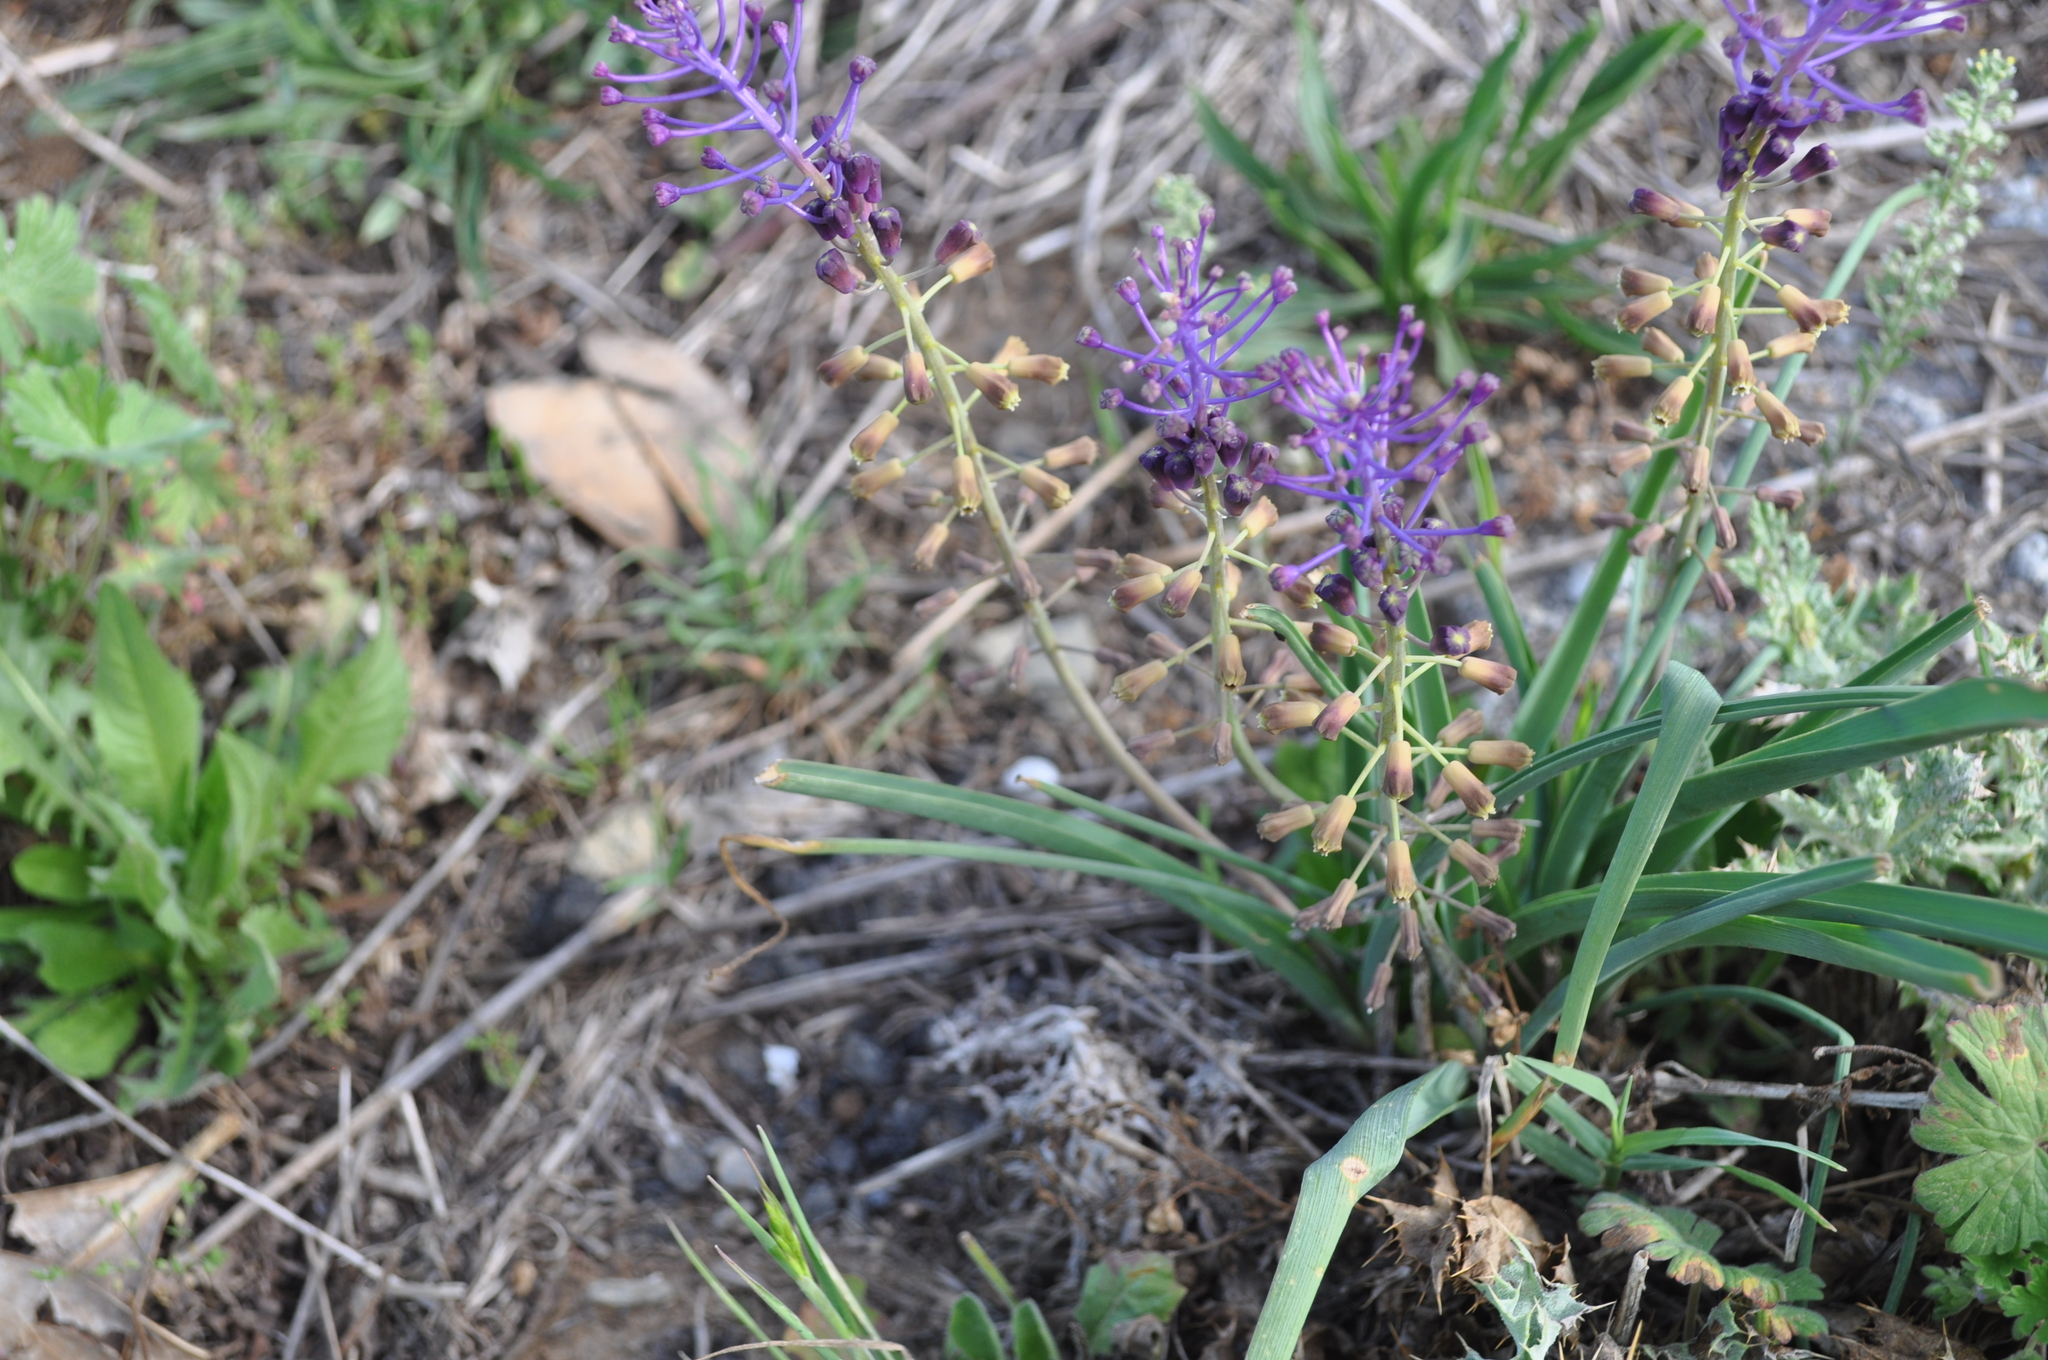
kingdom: Plantae
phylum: Tracheophyta
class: Liliopsida
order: Asparagales
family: Asparagaceae
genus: Muscari
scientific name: Muscari comosum
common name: Tassel hyacinth
